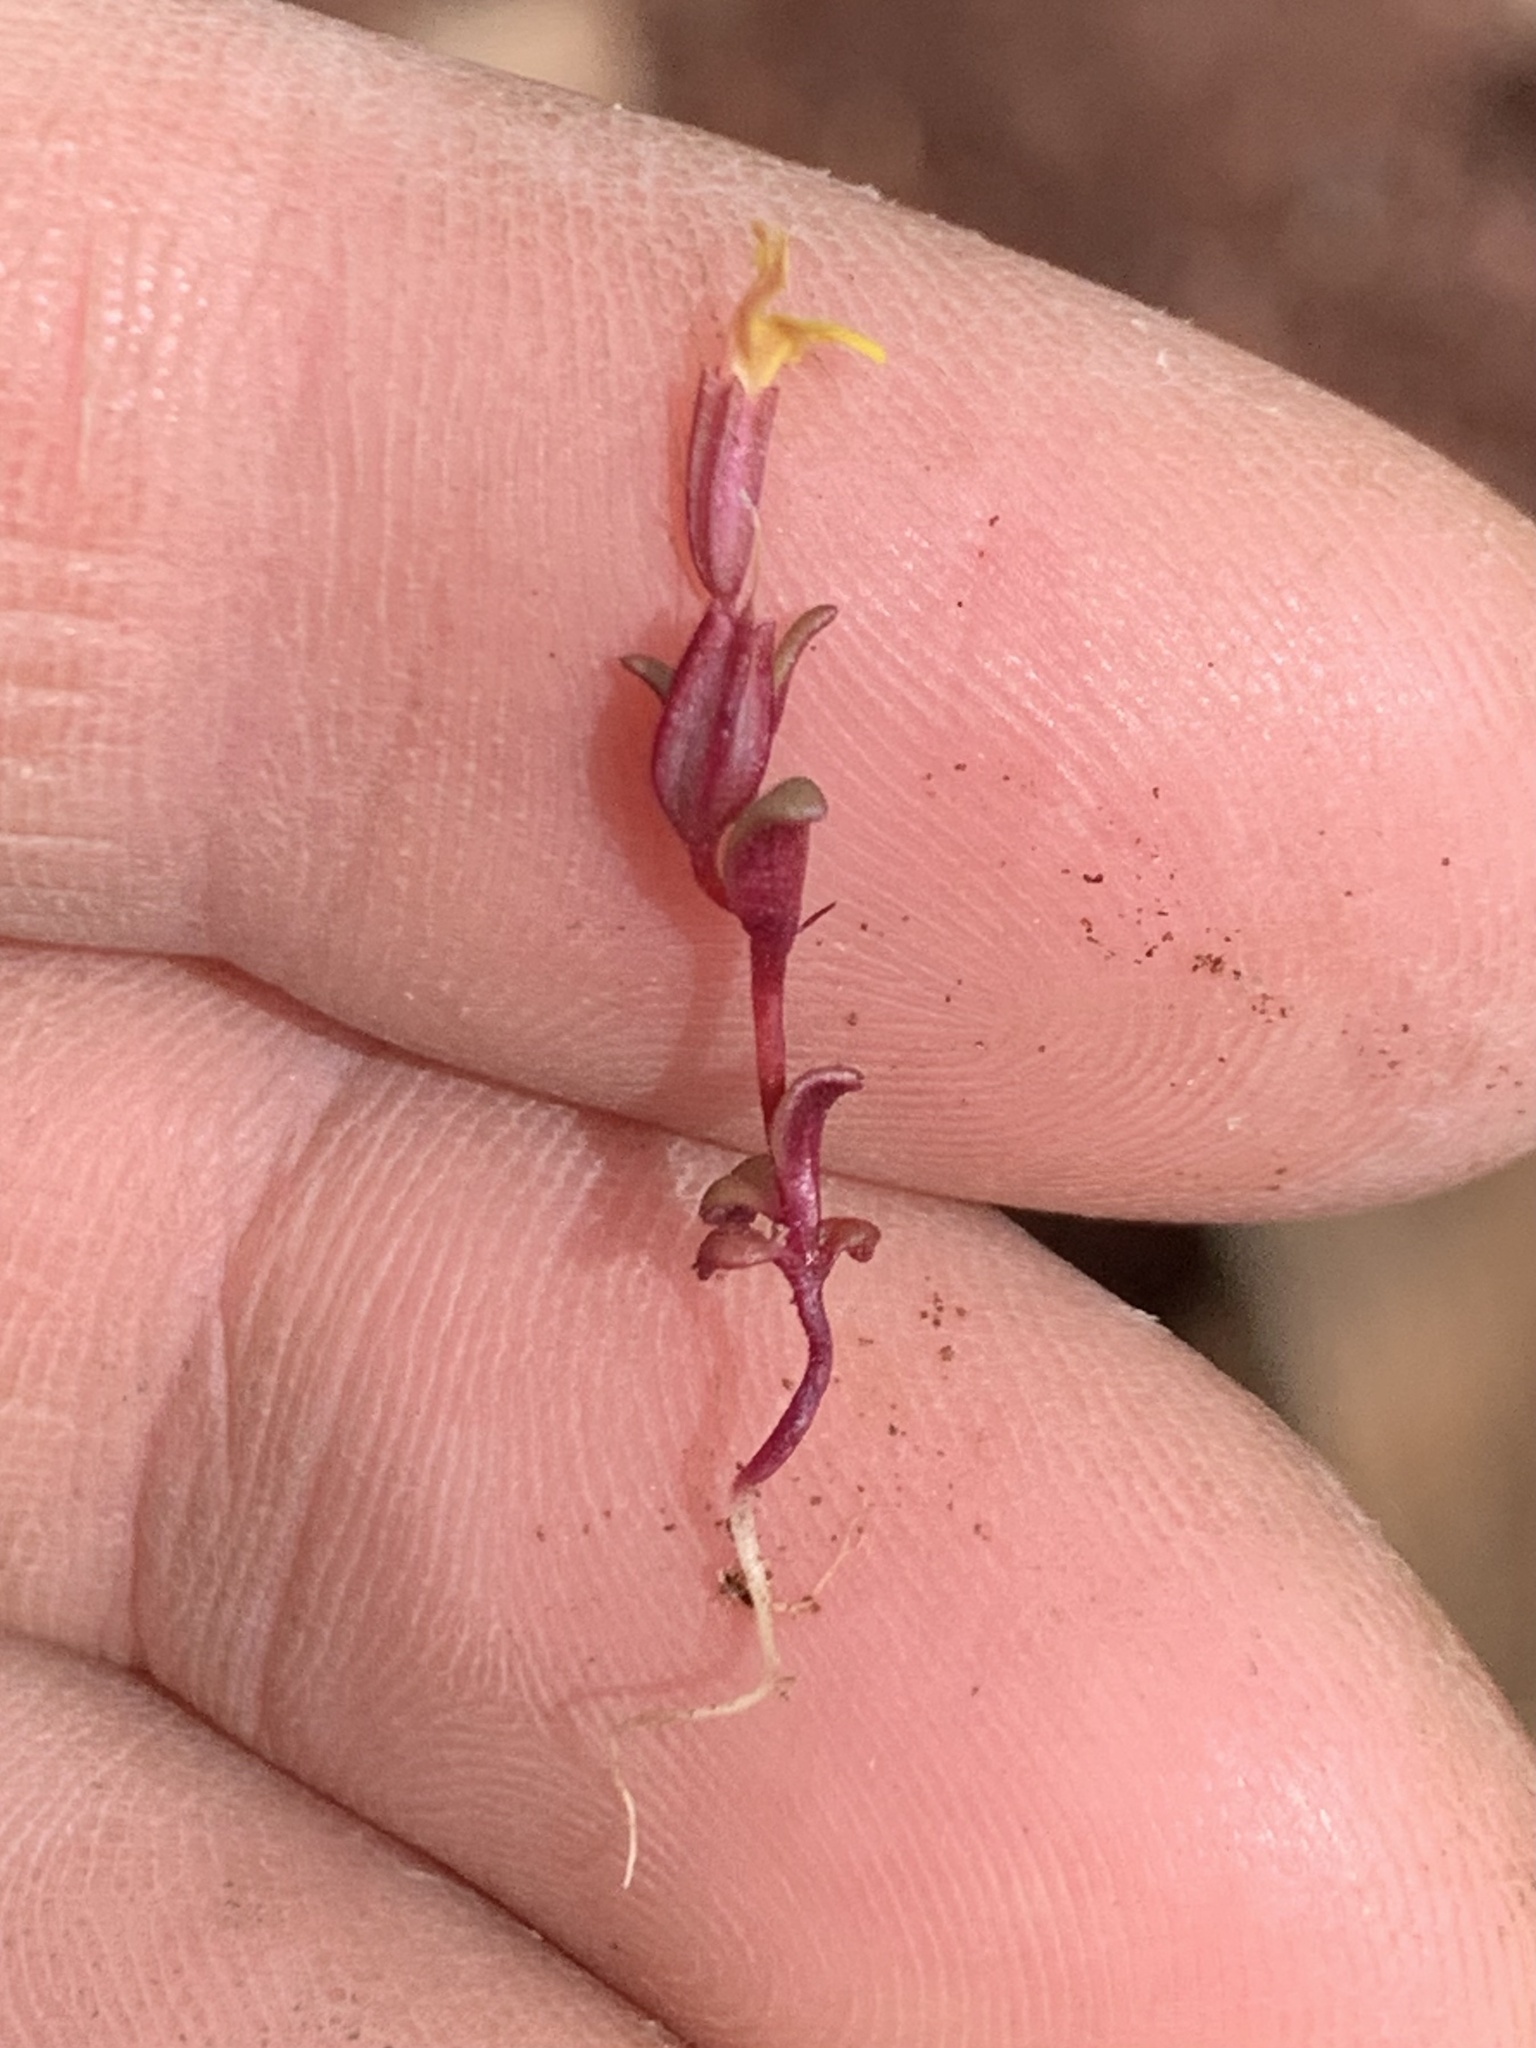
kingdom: Plantae
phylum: Tracheophyta
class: Magnoliopsida
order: Lamiales
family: Phrymaceae
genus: Erythranthe
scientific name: Erythranthe suksdorfii
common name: Suksdorf's monkeyflower
